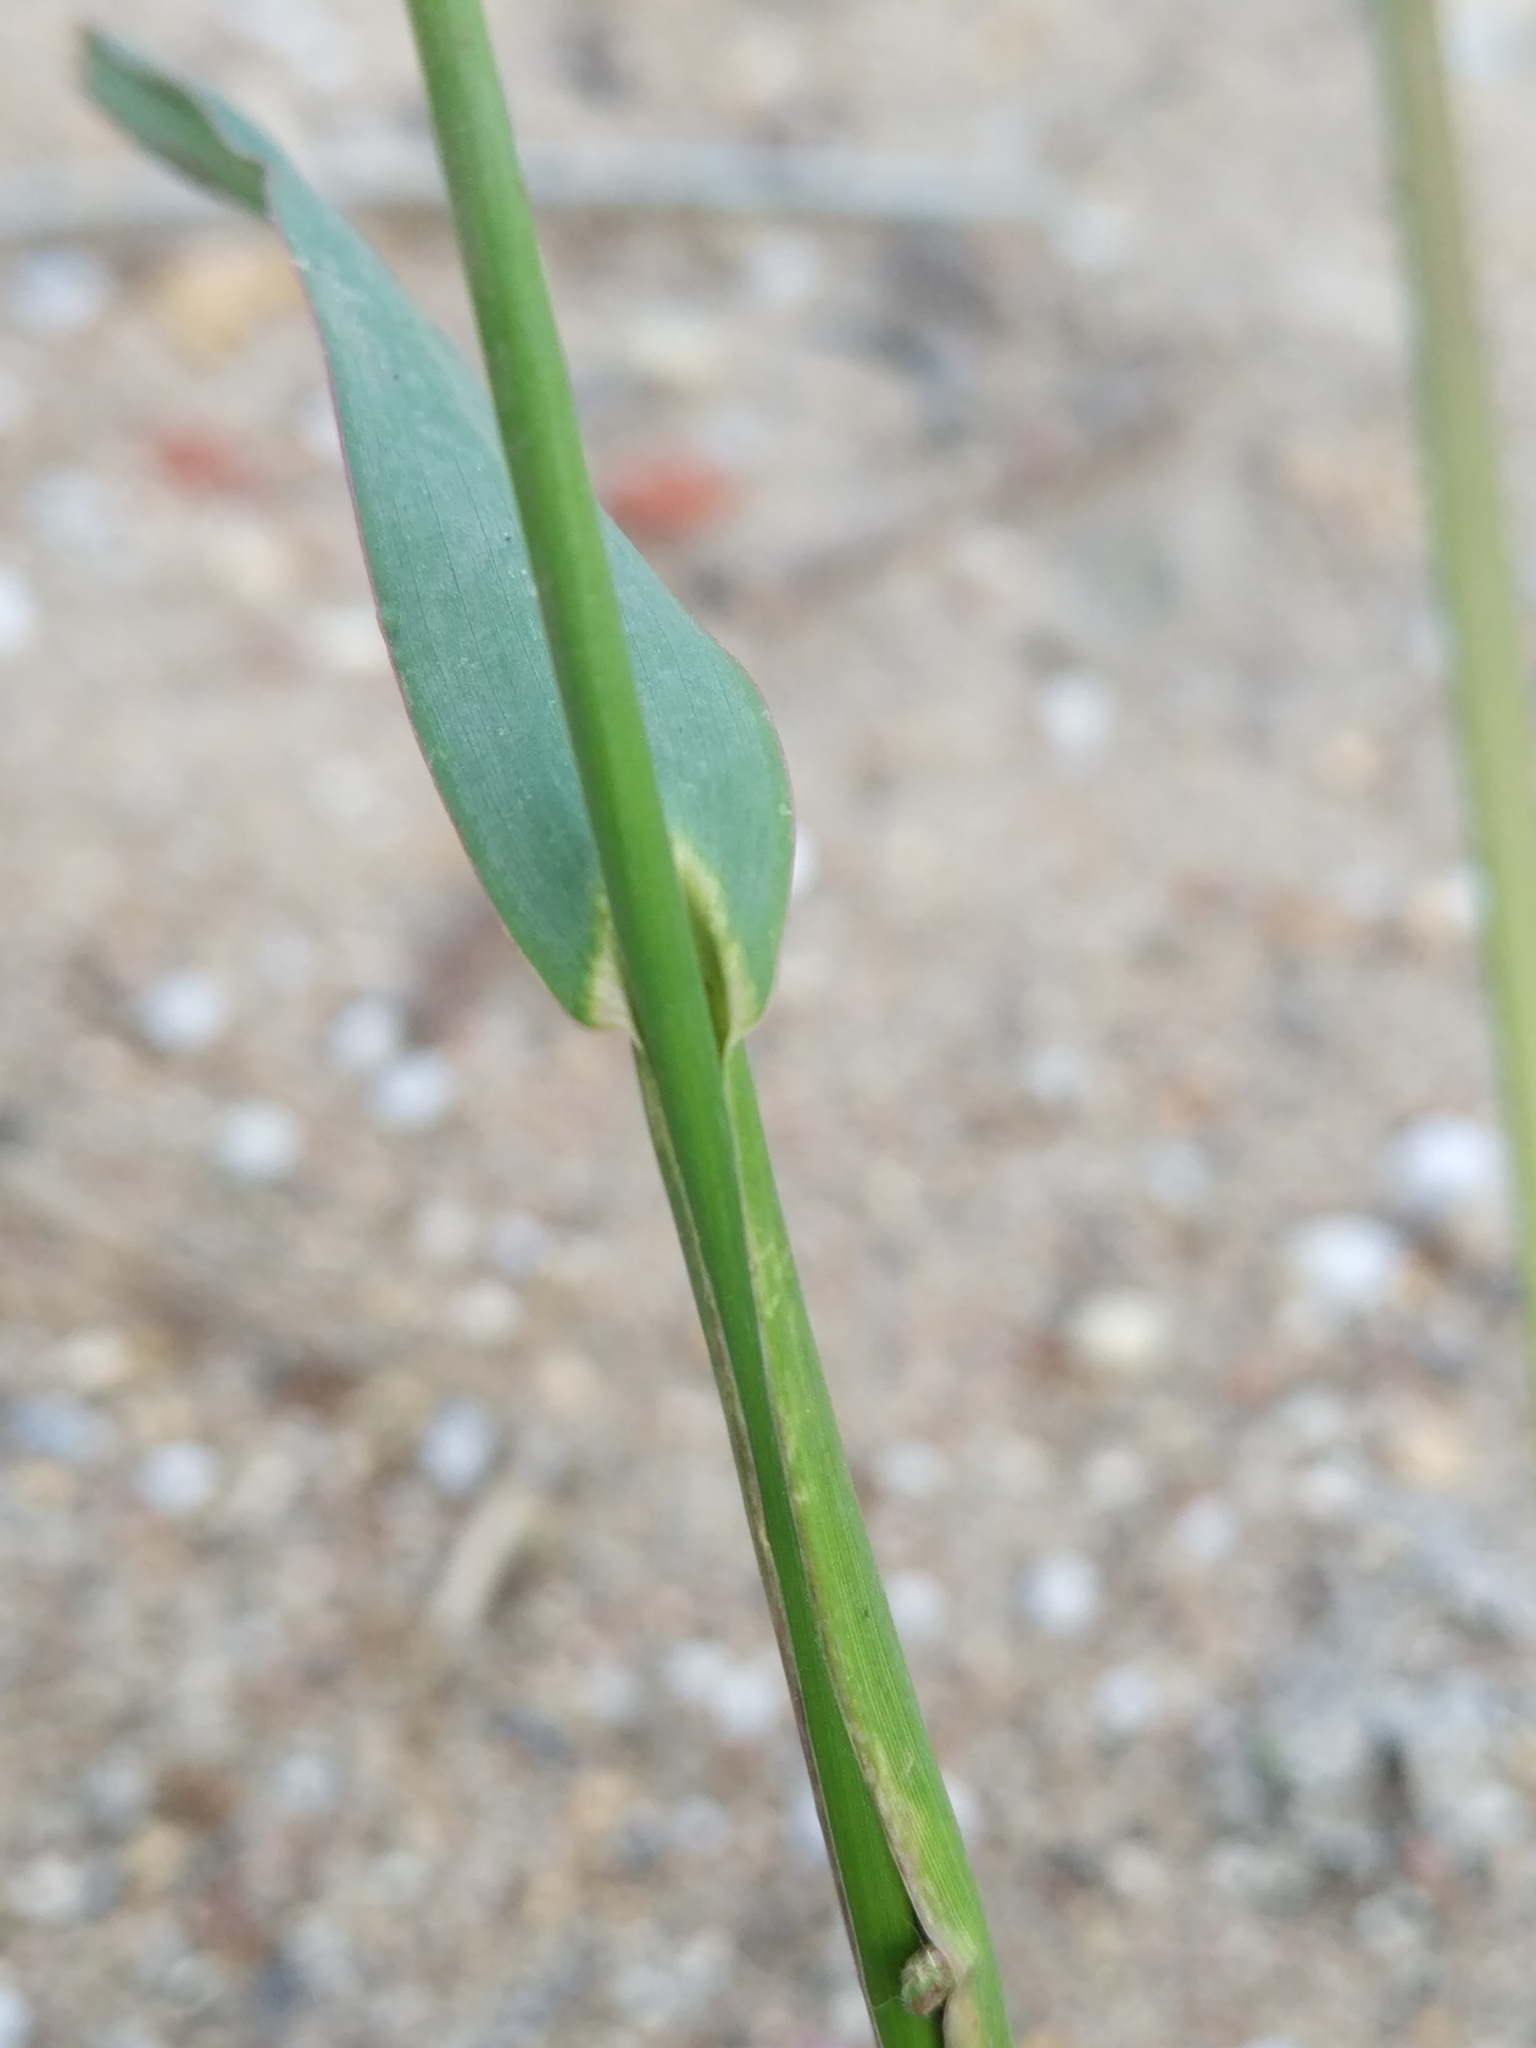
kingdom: Plantae
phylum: Tracheophyta
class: Liliopsida
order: Poales
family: Poaceae
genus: Echinochloa
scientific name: Echinochloa crus-galli
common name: Cockspur
